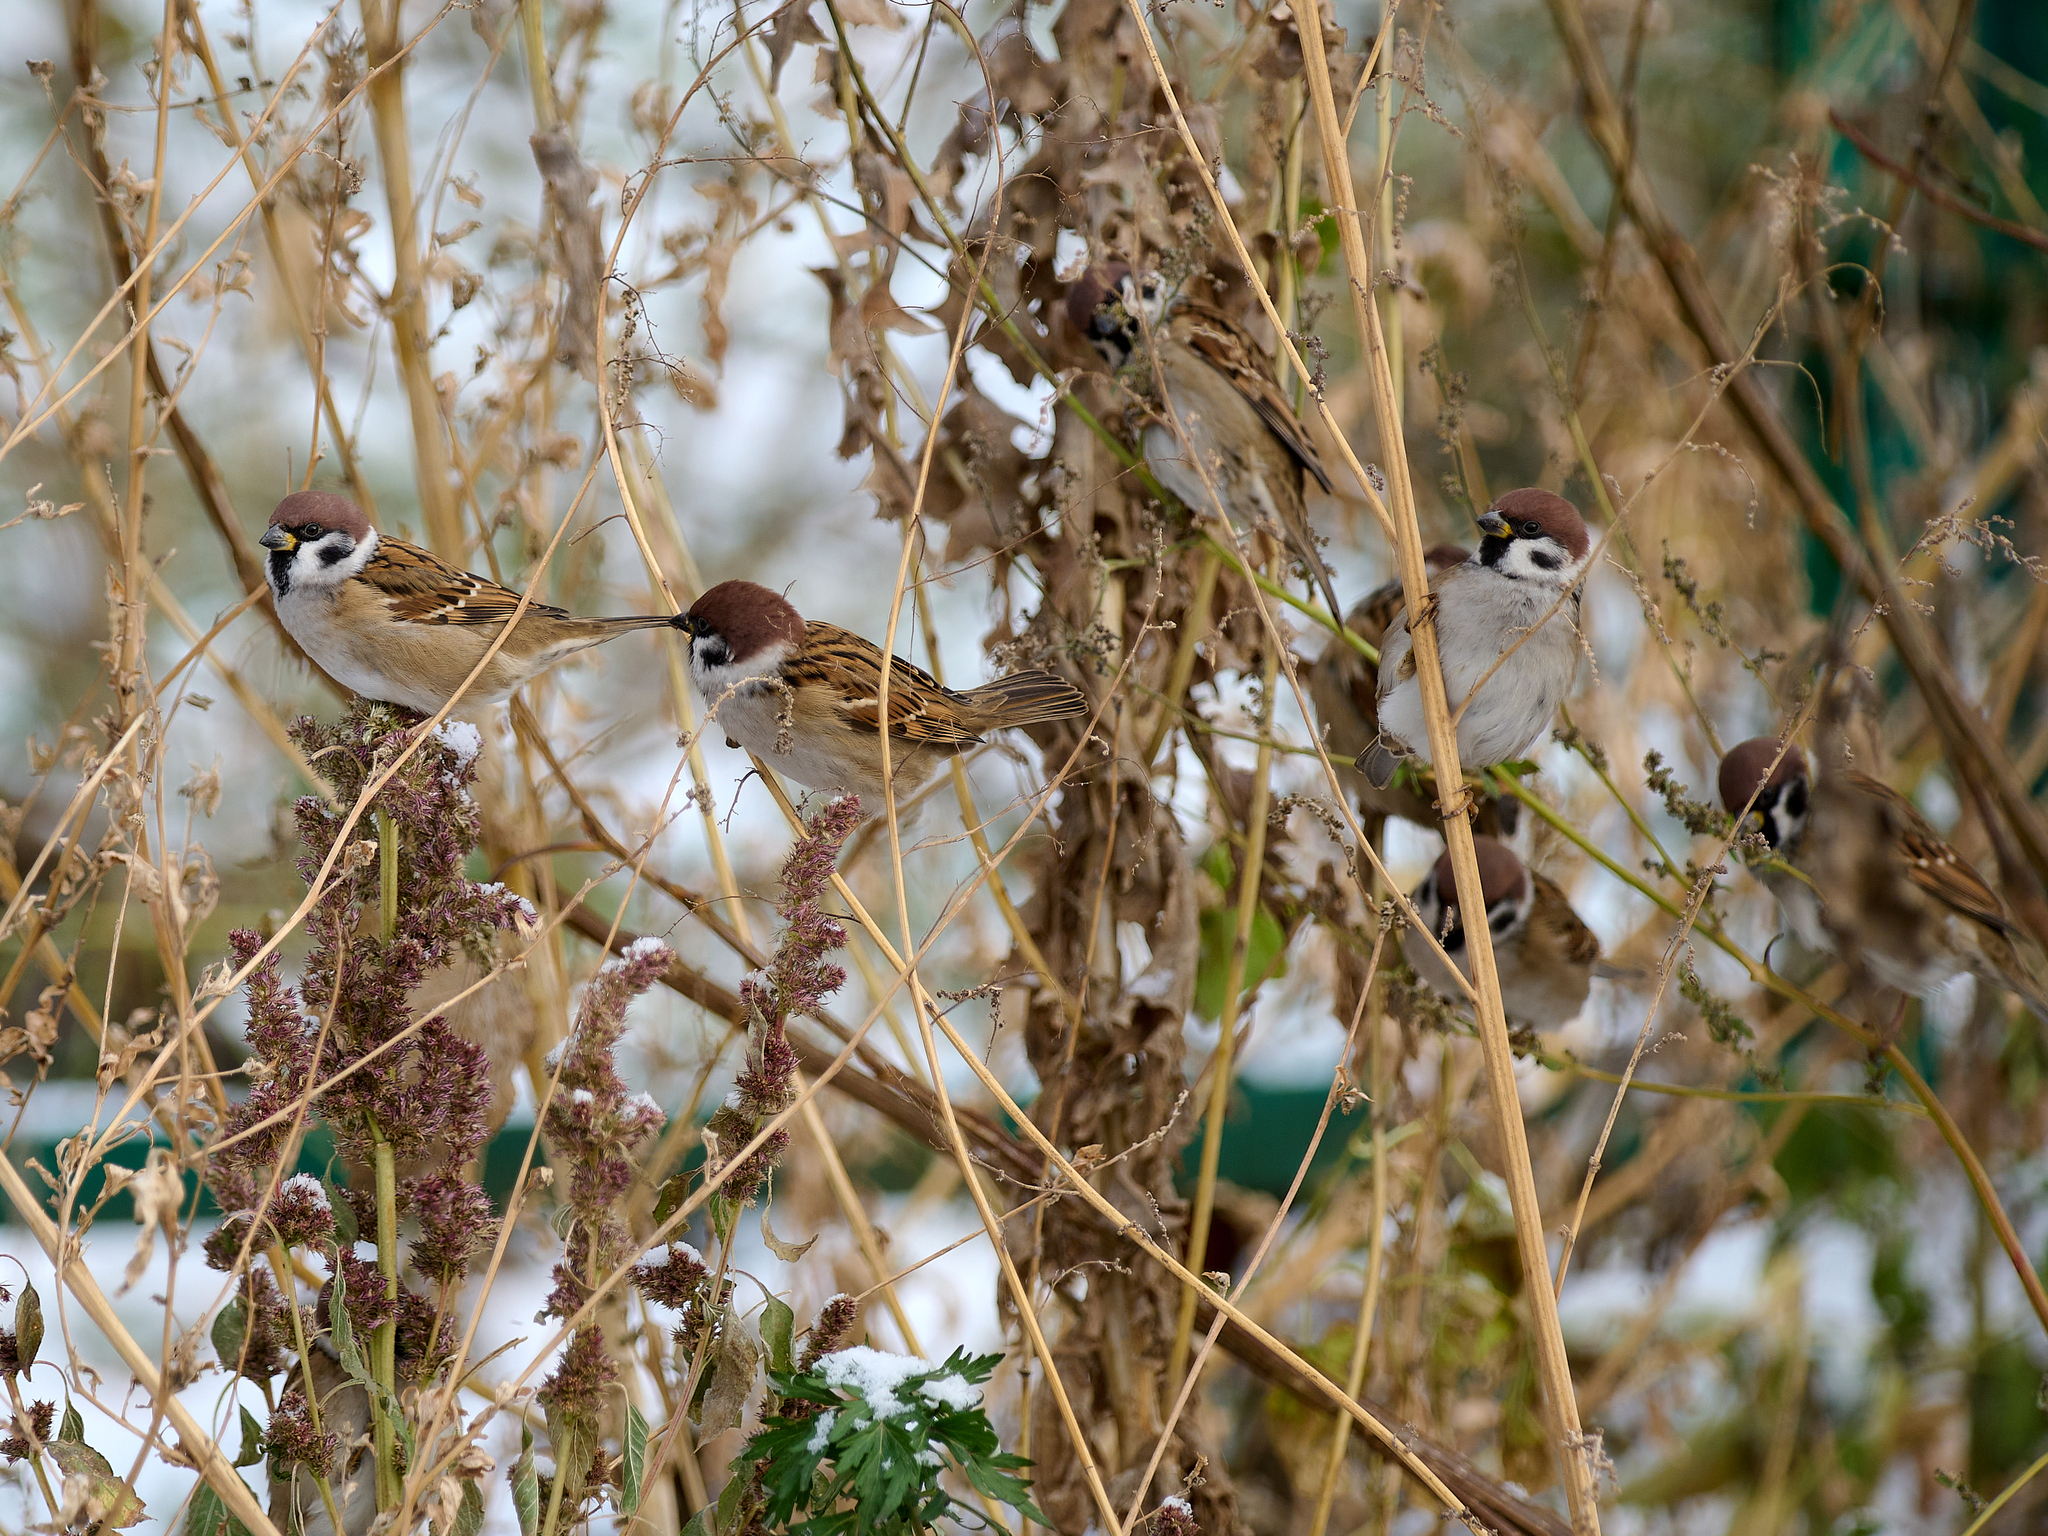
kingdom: Animalia
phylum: Chordata
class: Aves
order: Passeriformes
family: Passeridae
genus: Passer
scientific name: Passer montanus
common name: Eurasian tree sparrow
